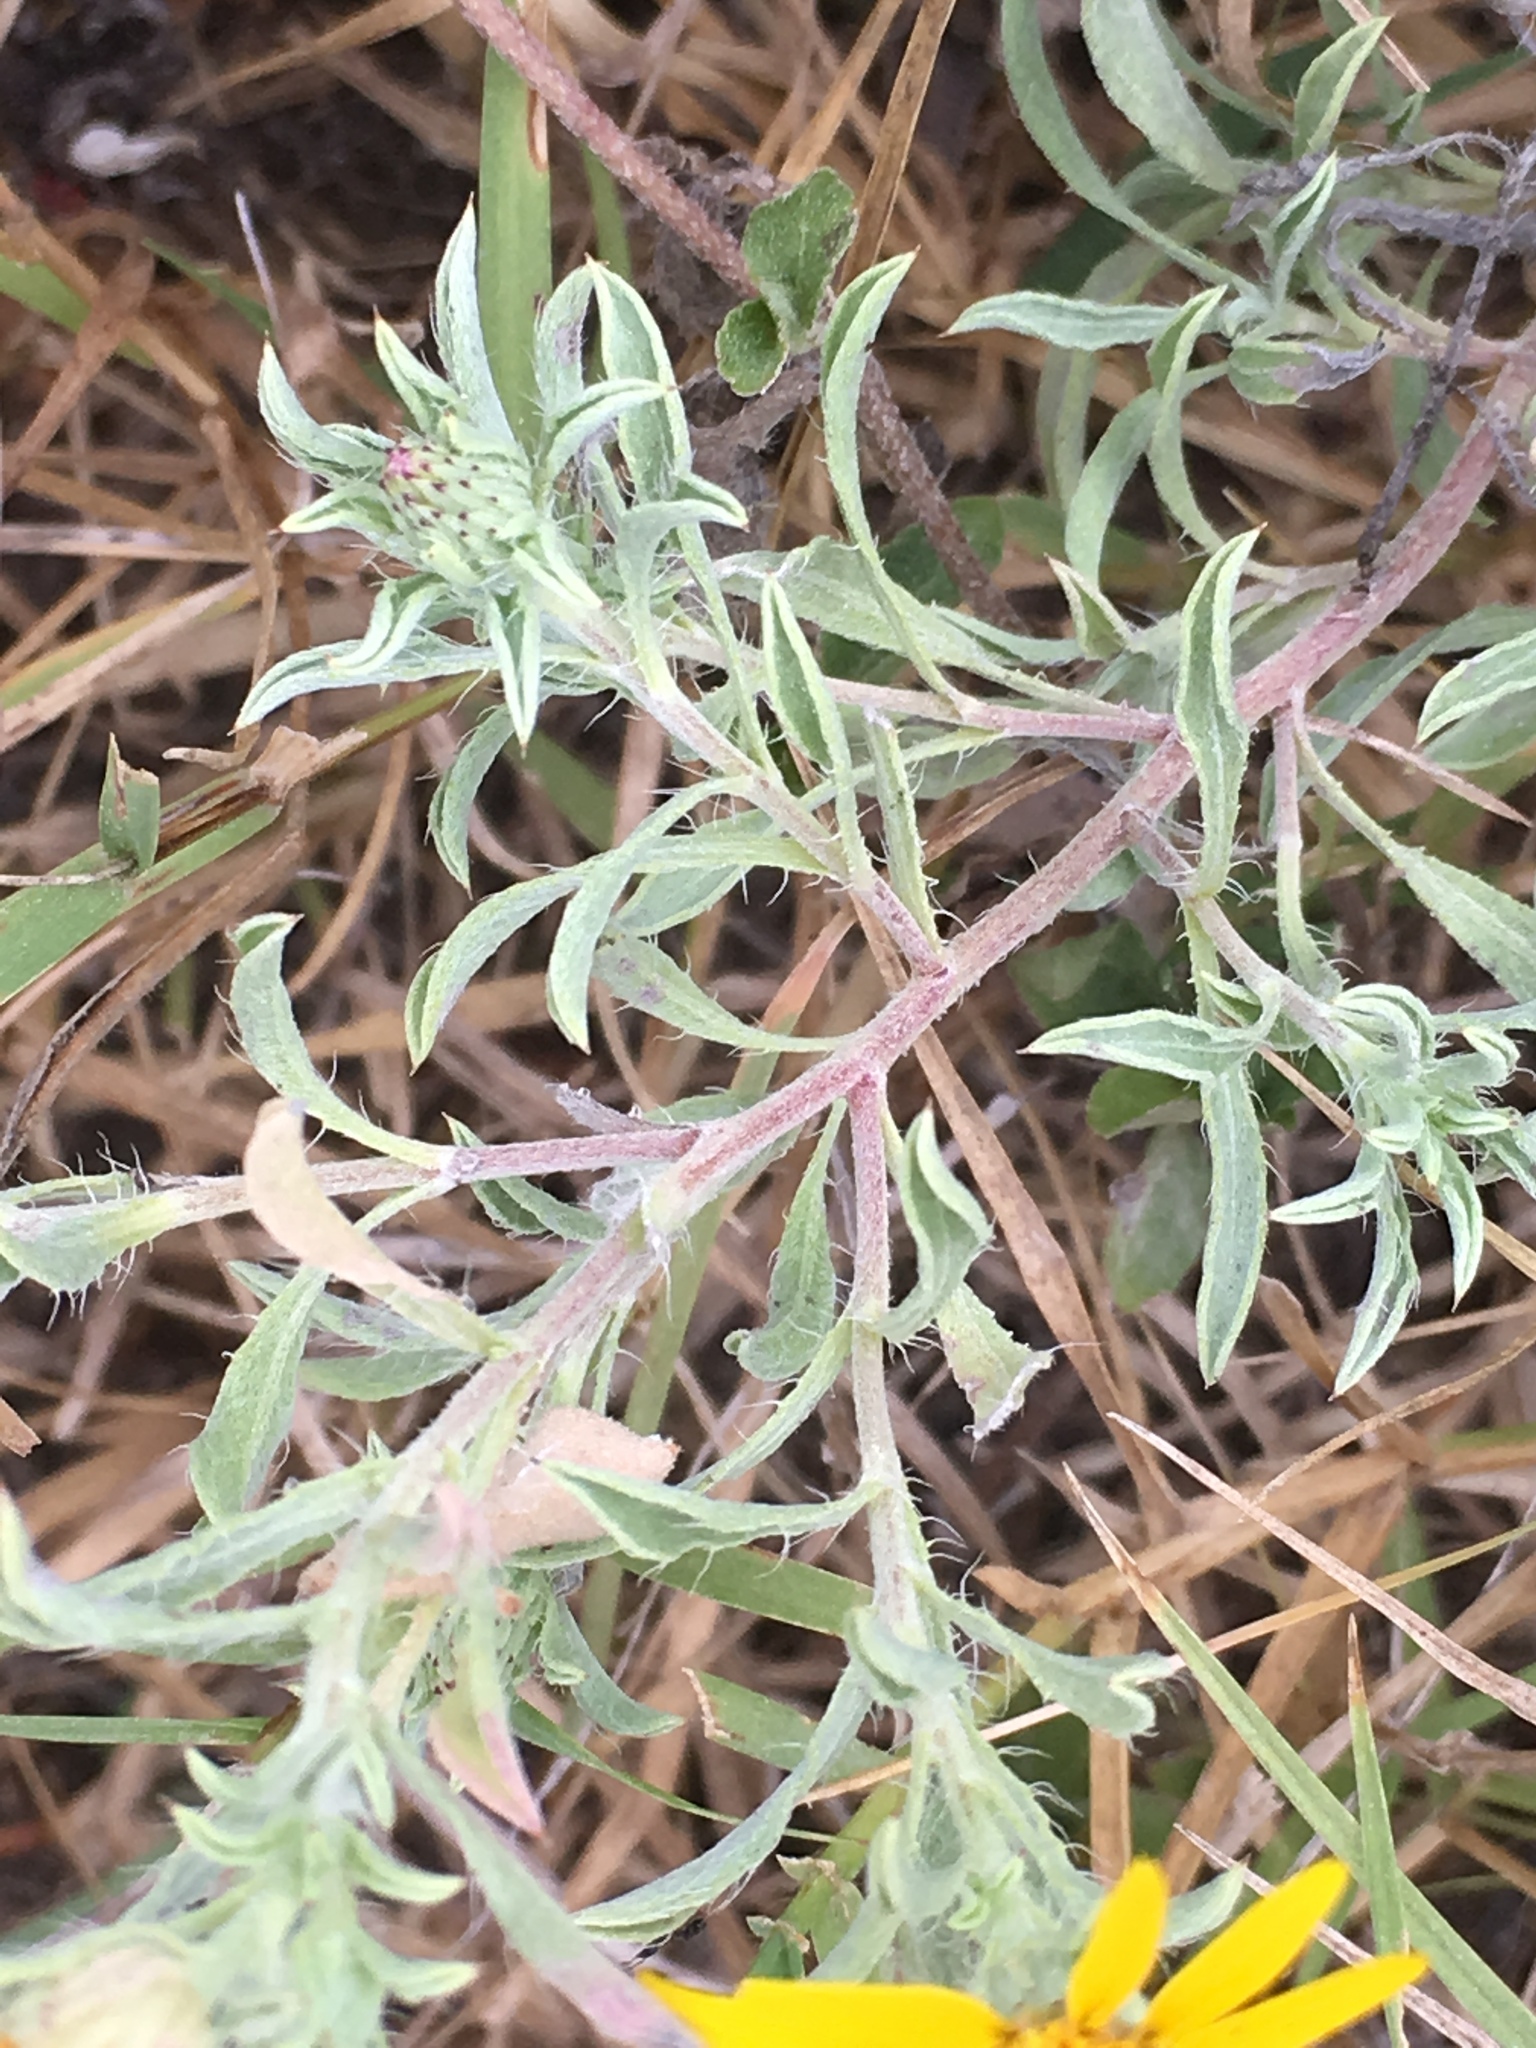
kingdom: Plantae
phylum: Tracheophyta
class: Magnoliopsida
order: Asterales
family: Asteraceae
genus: Heterotheca
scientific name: Heterotheca canescens
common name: Hoary golden-aster
